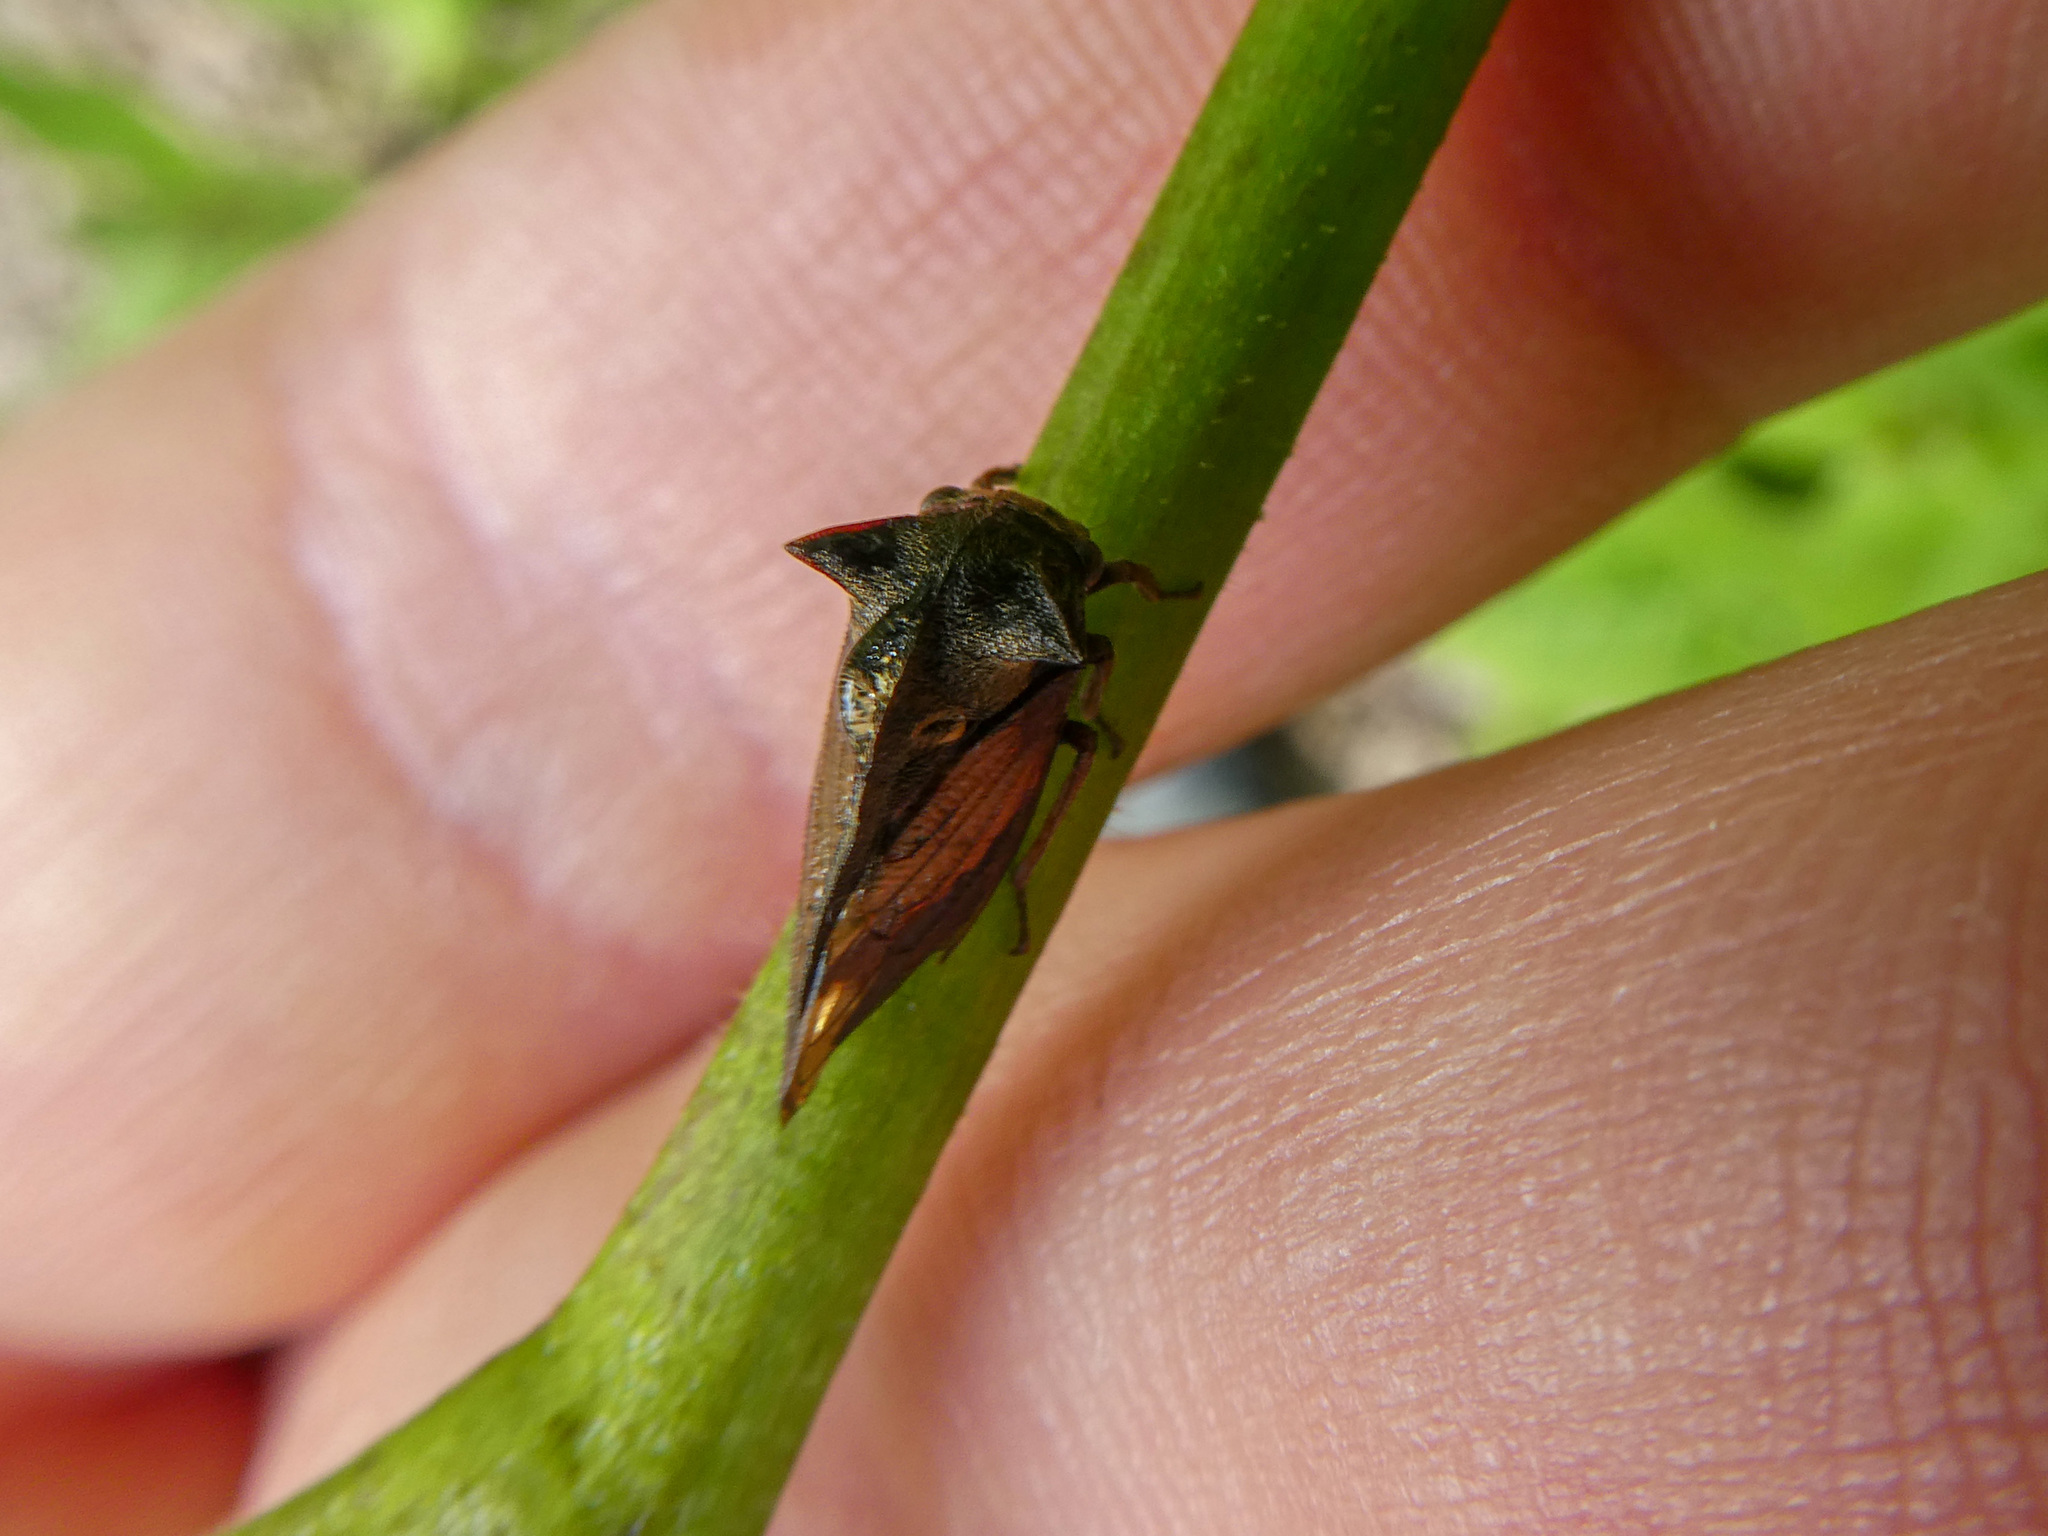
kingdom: Animalia
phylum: Arthropoda
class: Insecta
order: Hemiptera
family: Membracidae
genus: Centrotus
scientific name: Centrotus cornuta
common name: Treehopper
